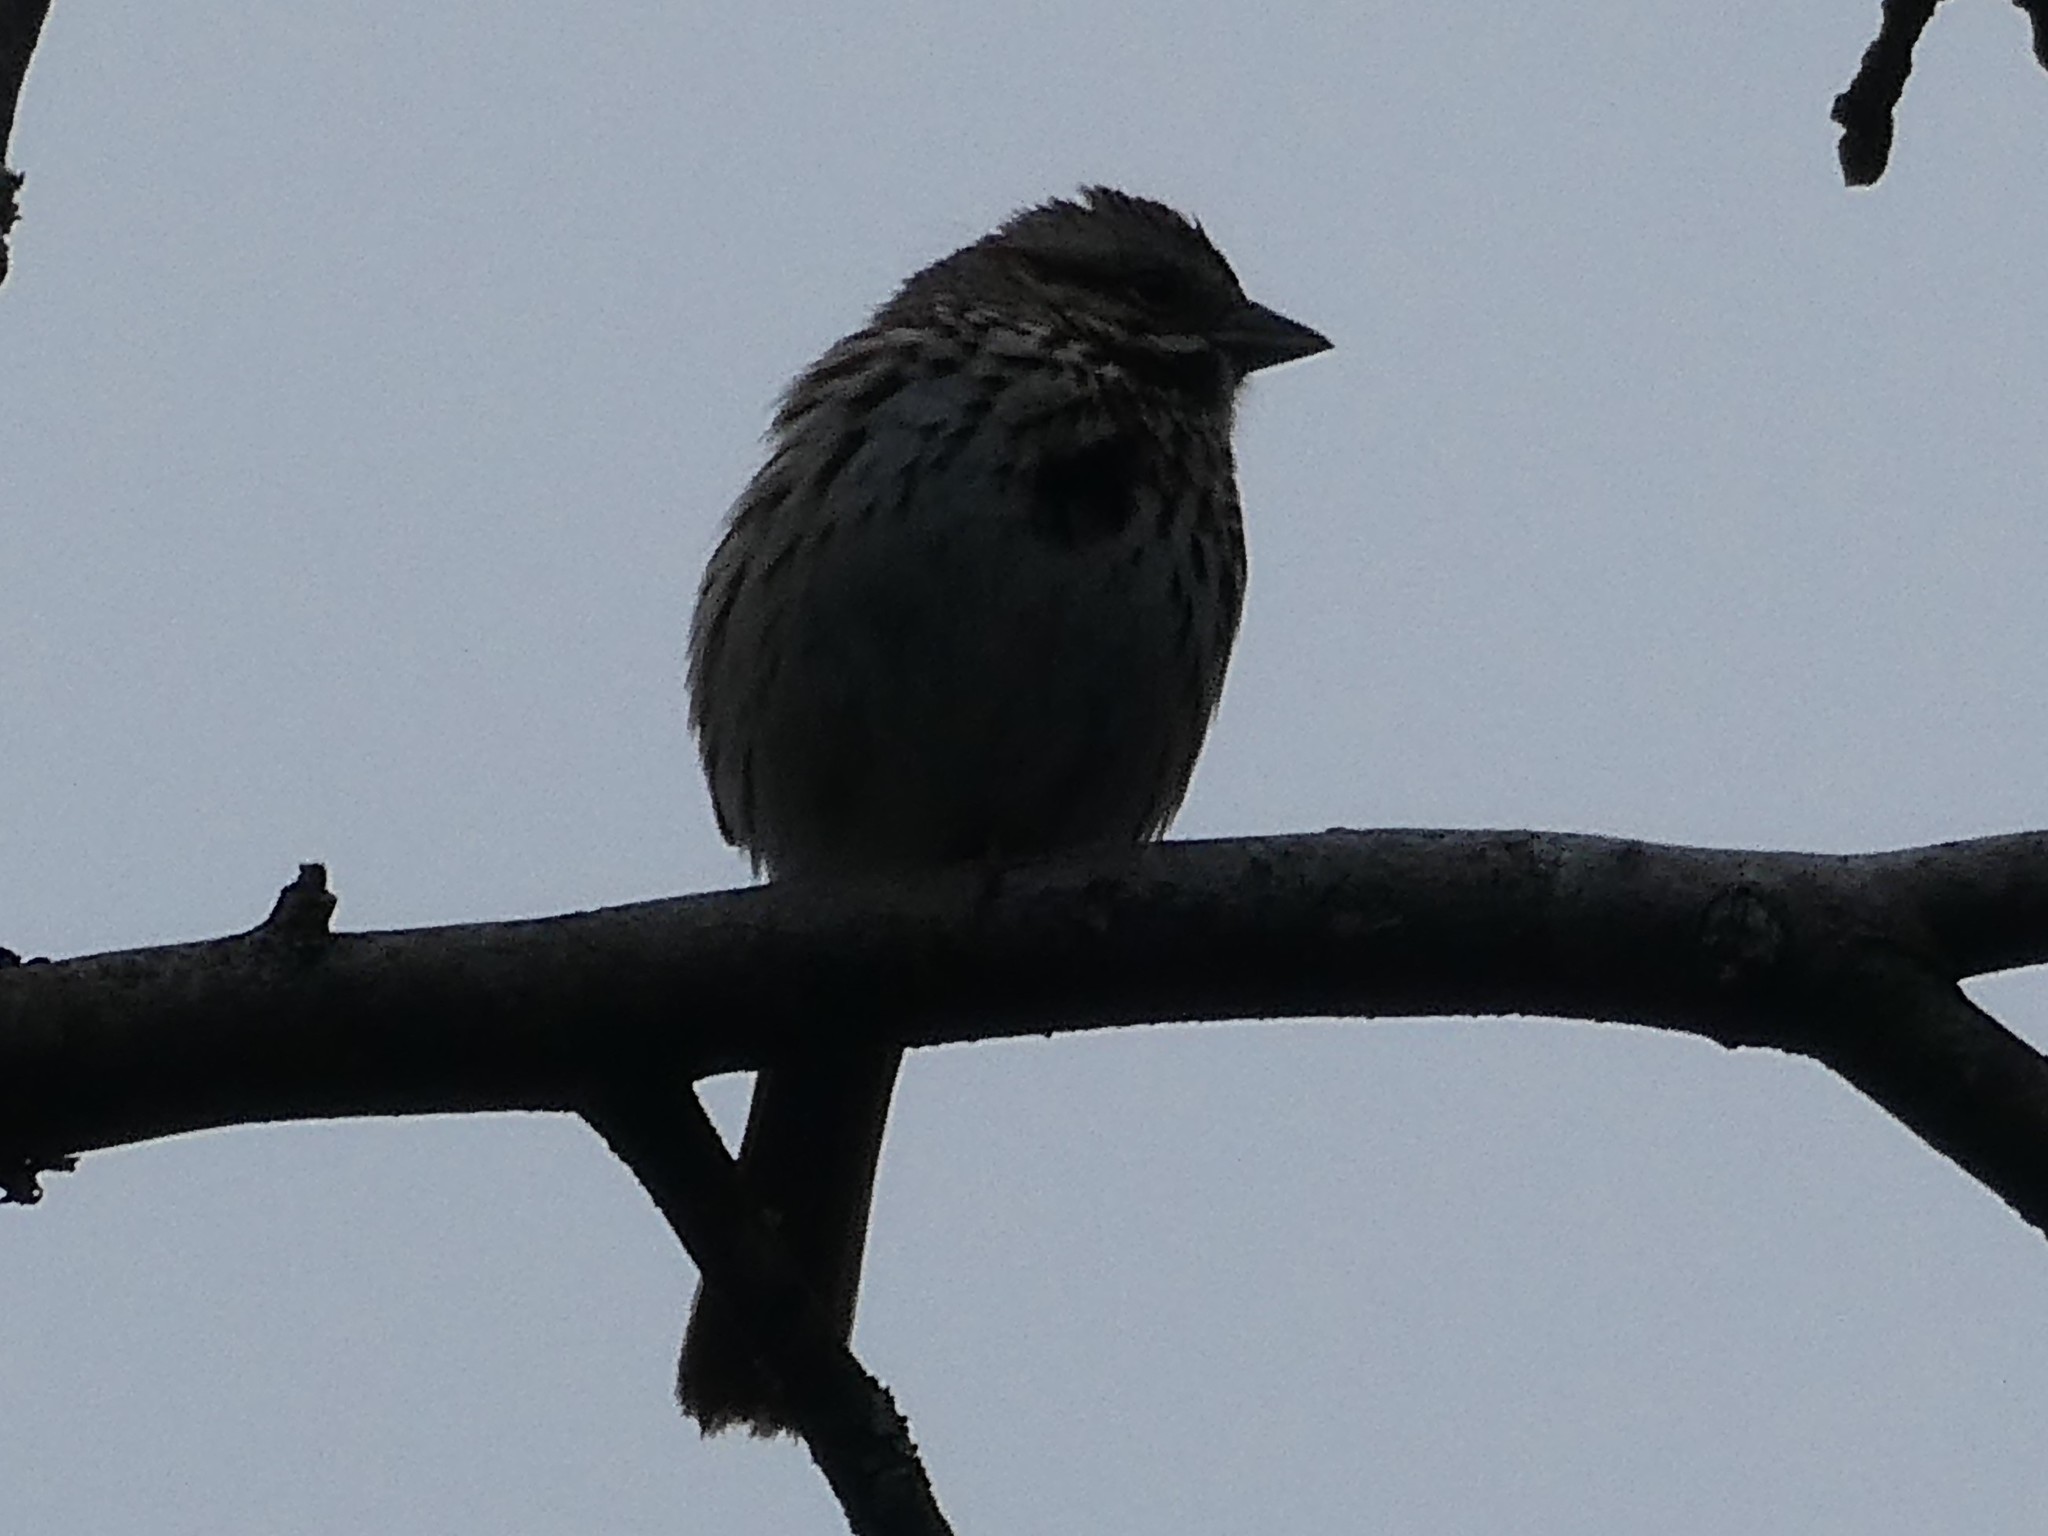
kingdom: Animalia
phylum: Chordata
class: Aves
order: Passeriformes
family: Passerellidae
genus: Melospiza
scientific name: Melospiza melodia
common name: Song sparrow
